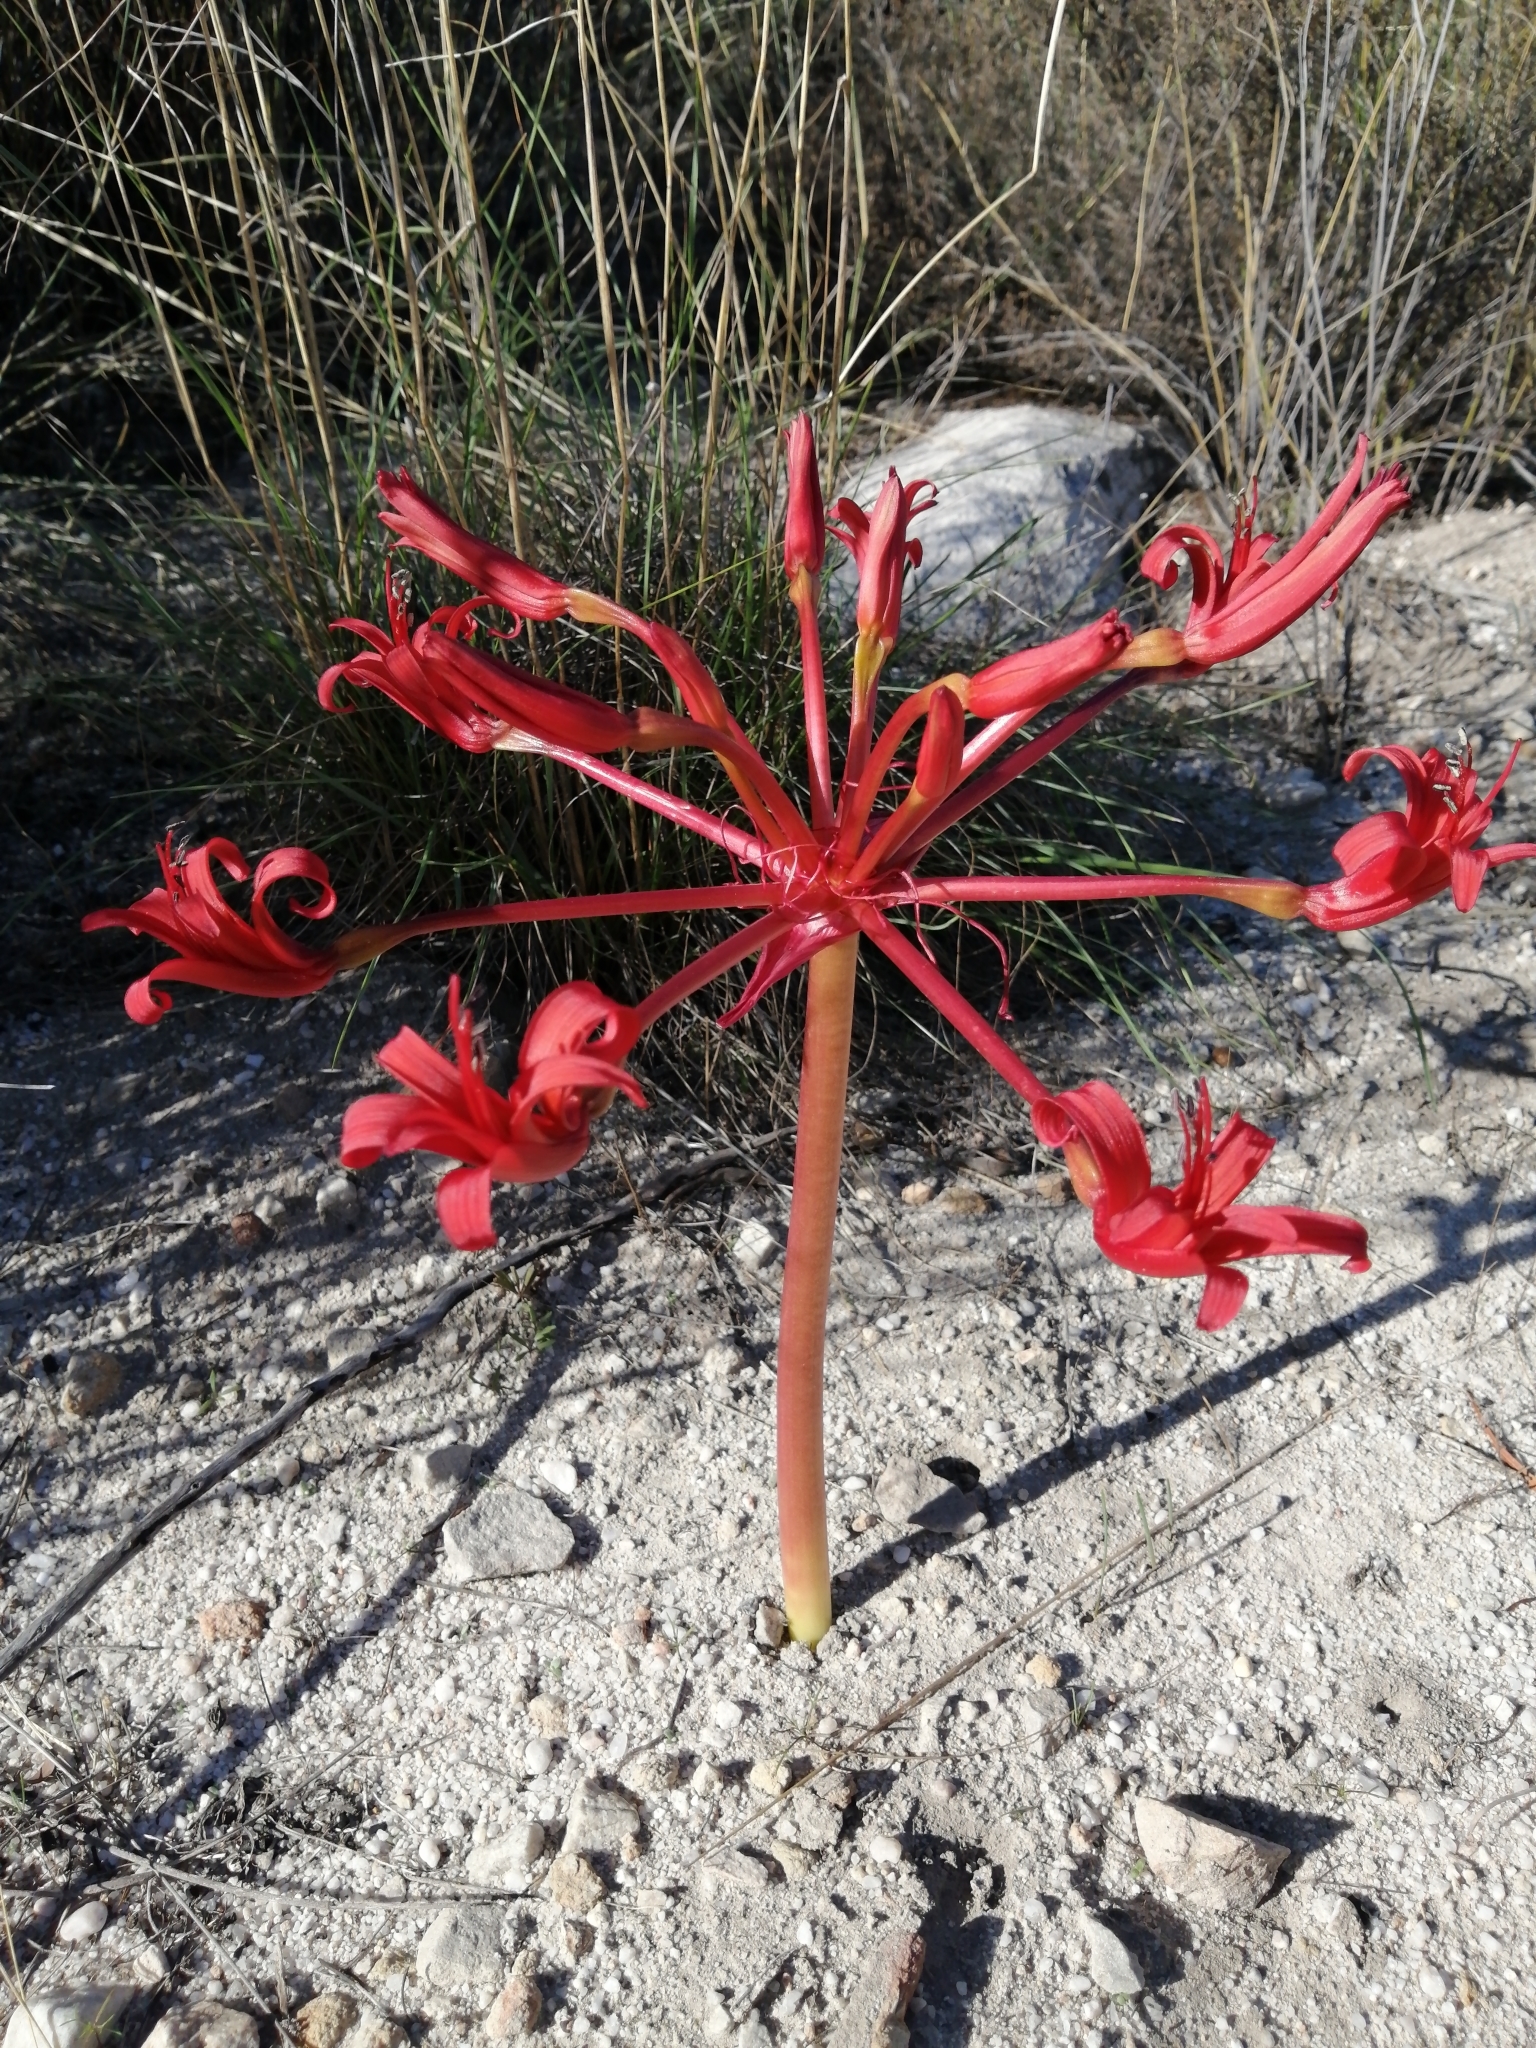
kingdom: Plantae
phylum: Tracheophyta
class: Liliopsida
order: Asparagales
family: Amaryllidaceae
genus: Brunsvigia
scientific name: Brunsvigia orientalis
